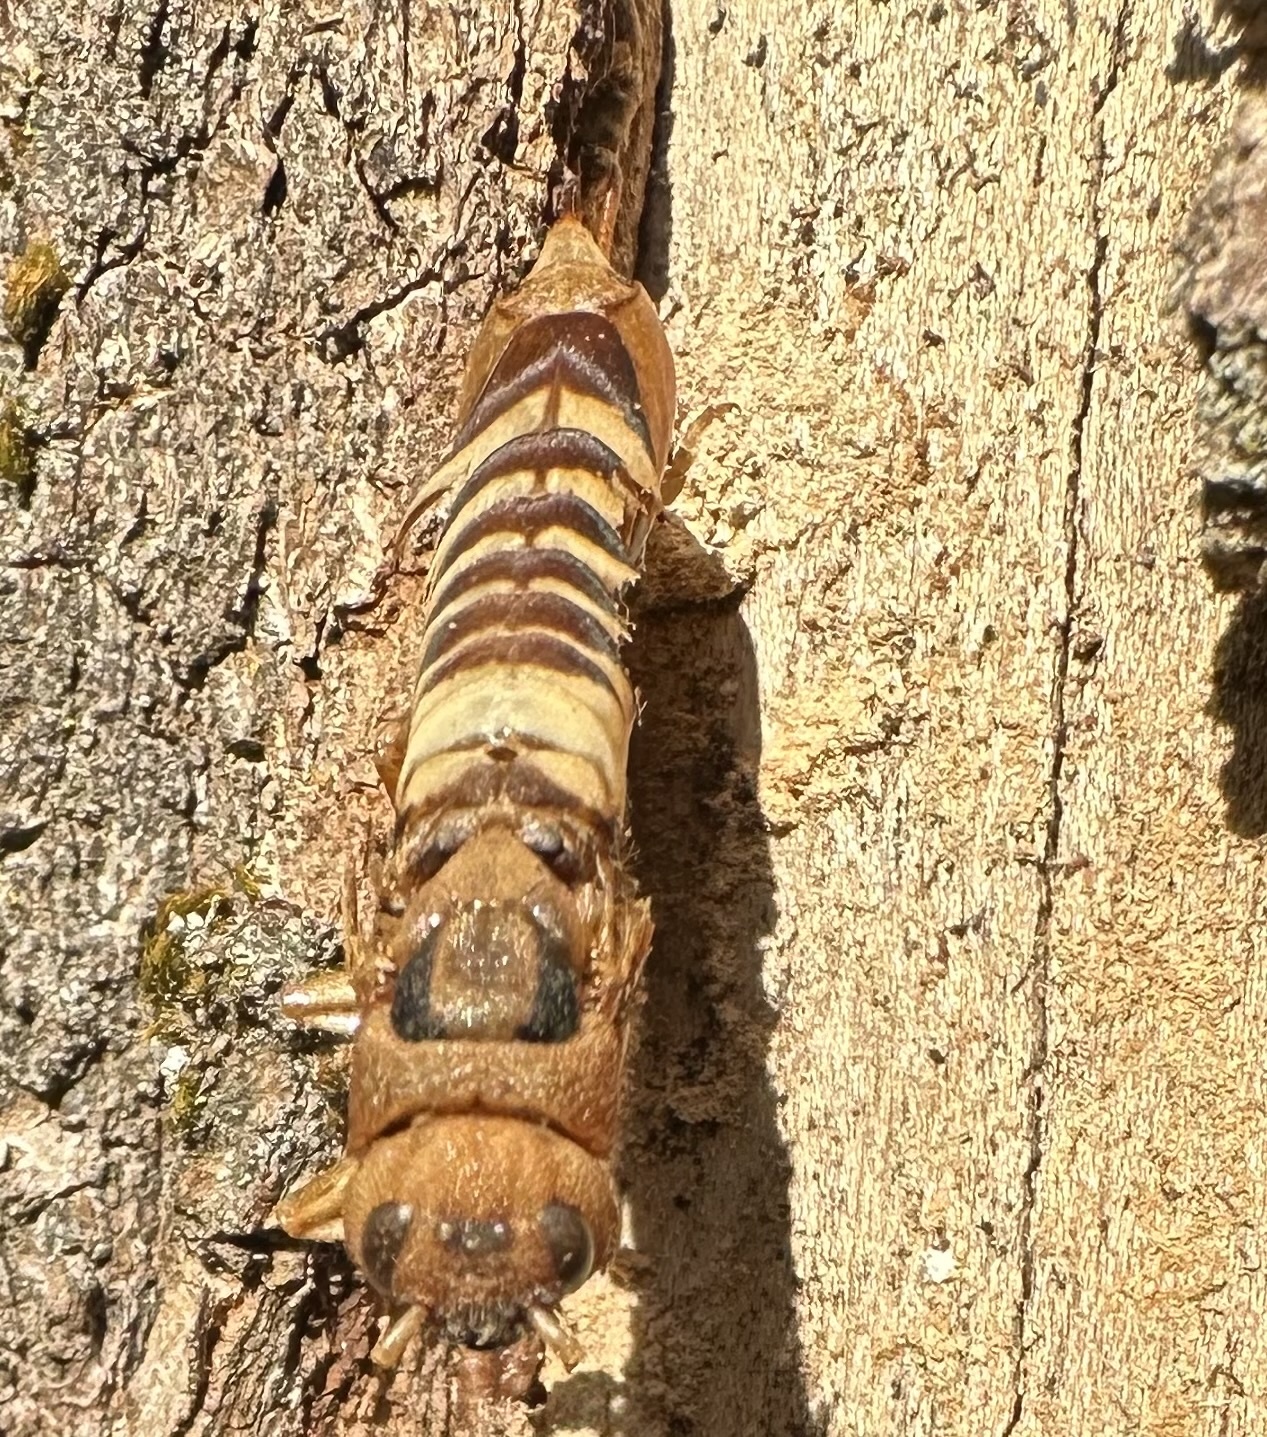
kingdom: Animalia
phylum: Arthropoda
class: Insecta
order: Hymenoptera
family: Siricidae
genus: Tremex
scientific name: Tremex columba
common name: Wasp
